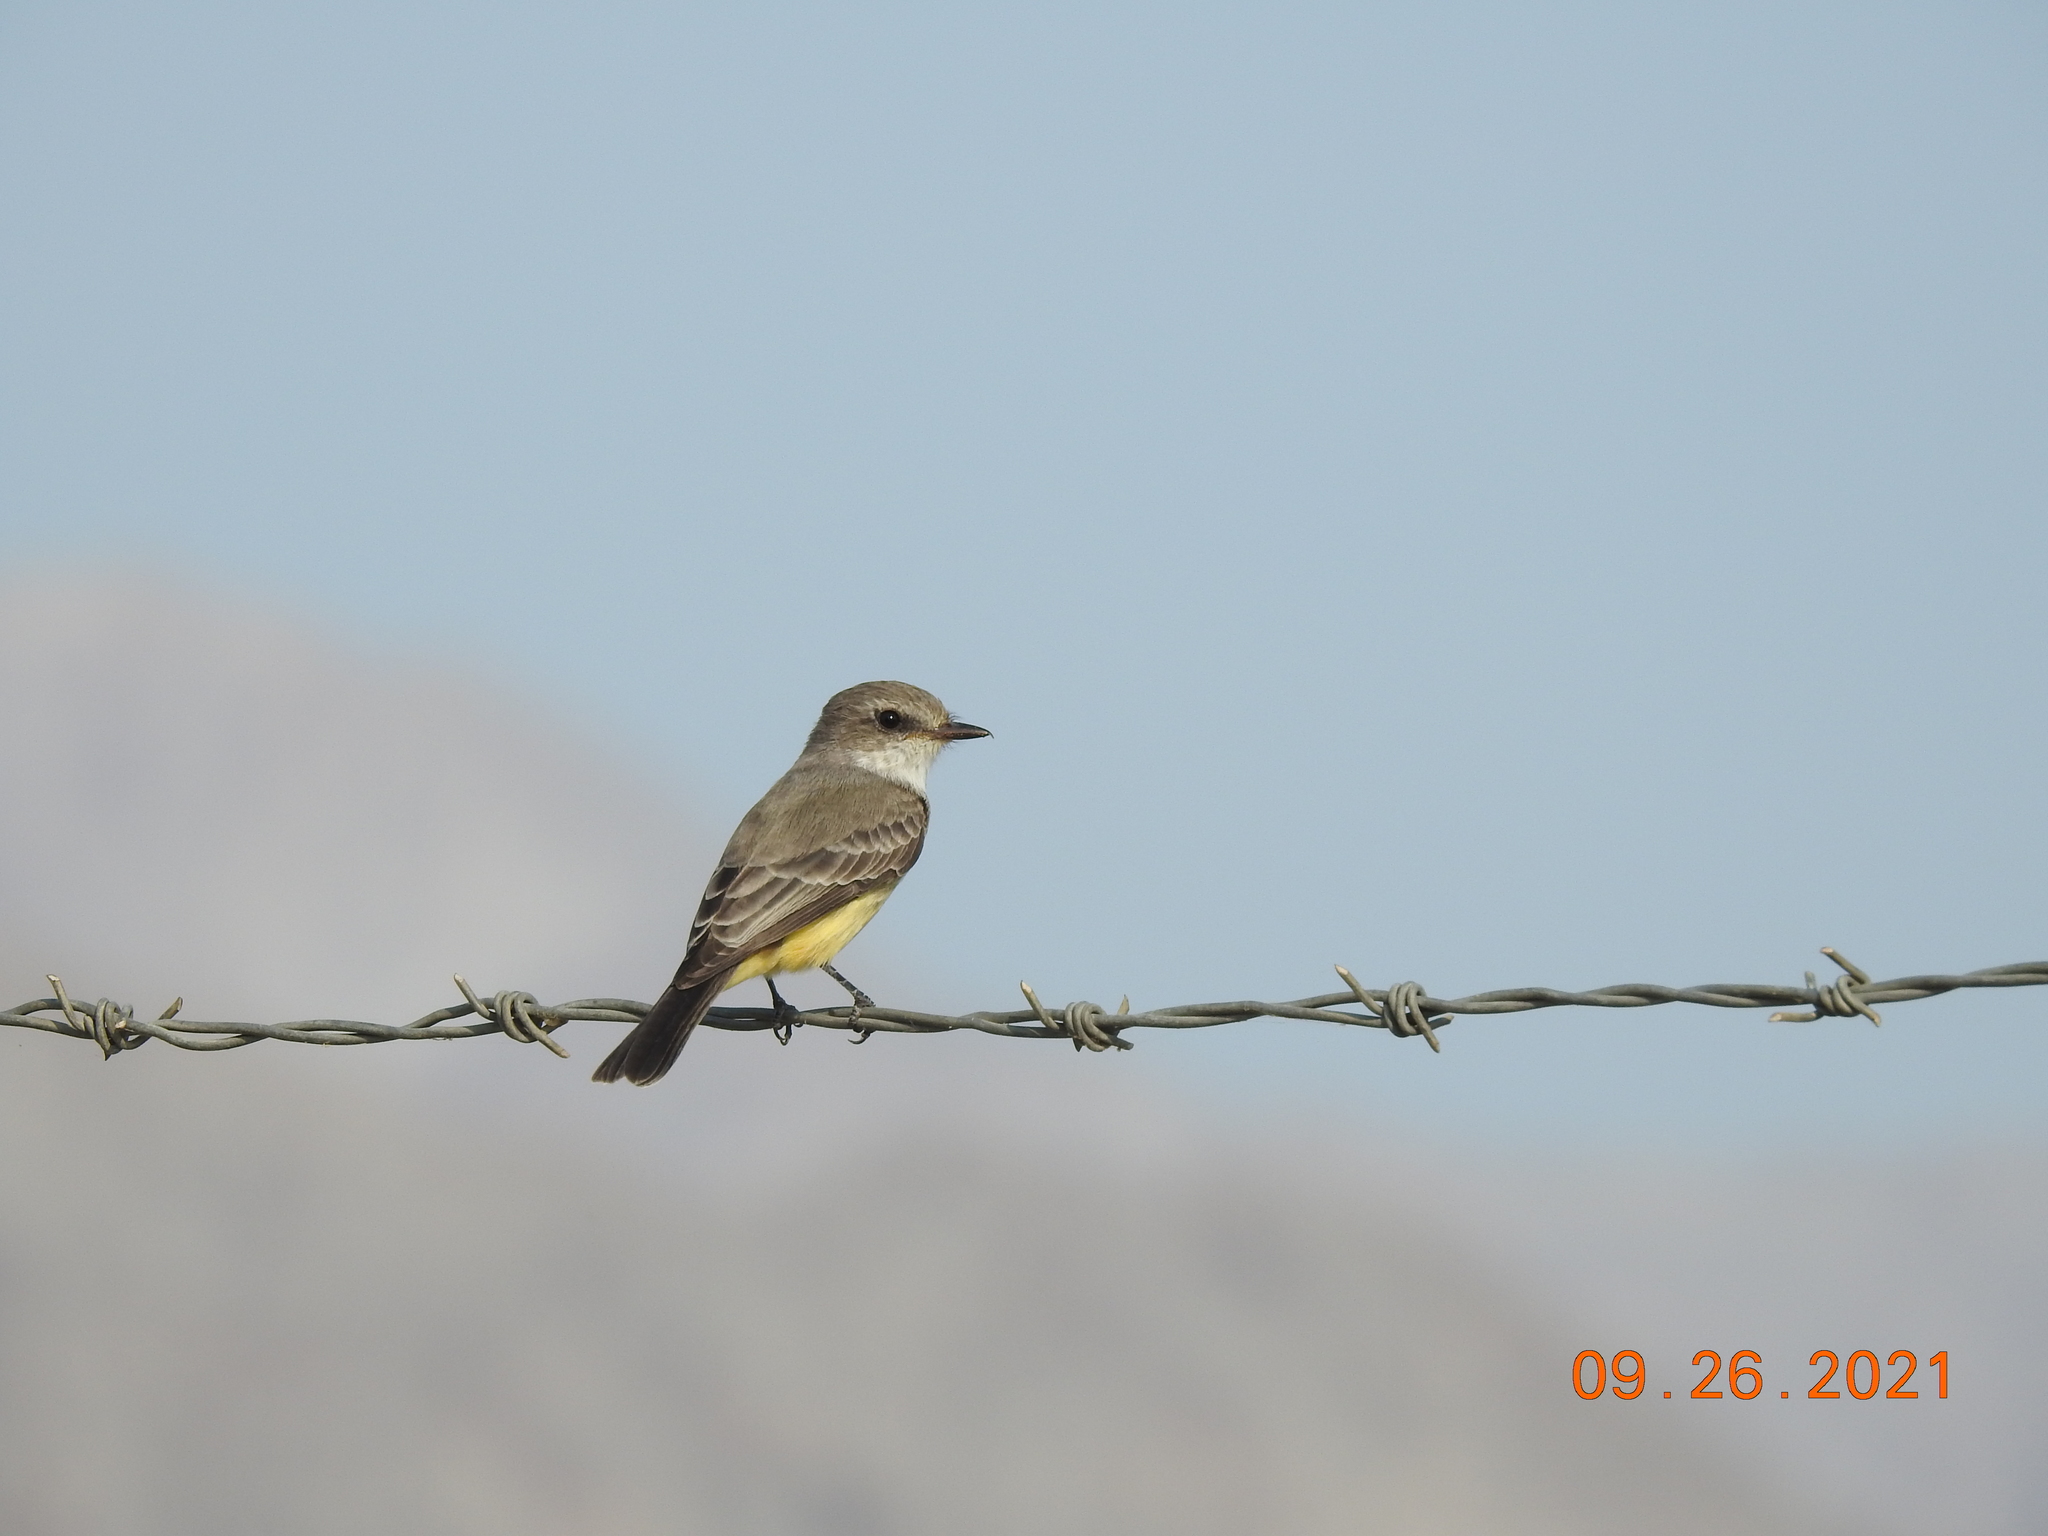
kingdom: Animalia
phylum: Chordata
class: Aves
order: Passeriformes
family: Tyrannidae
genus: Pyrocephalus
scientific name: Pyrocephalus rubinus
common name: Vermilion flycatcher
